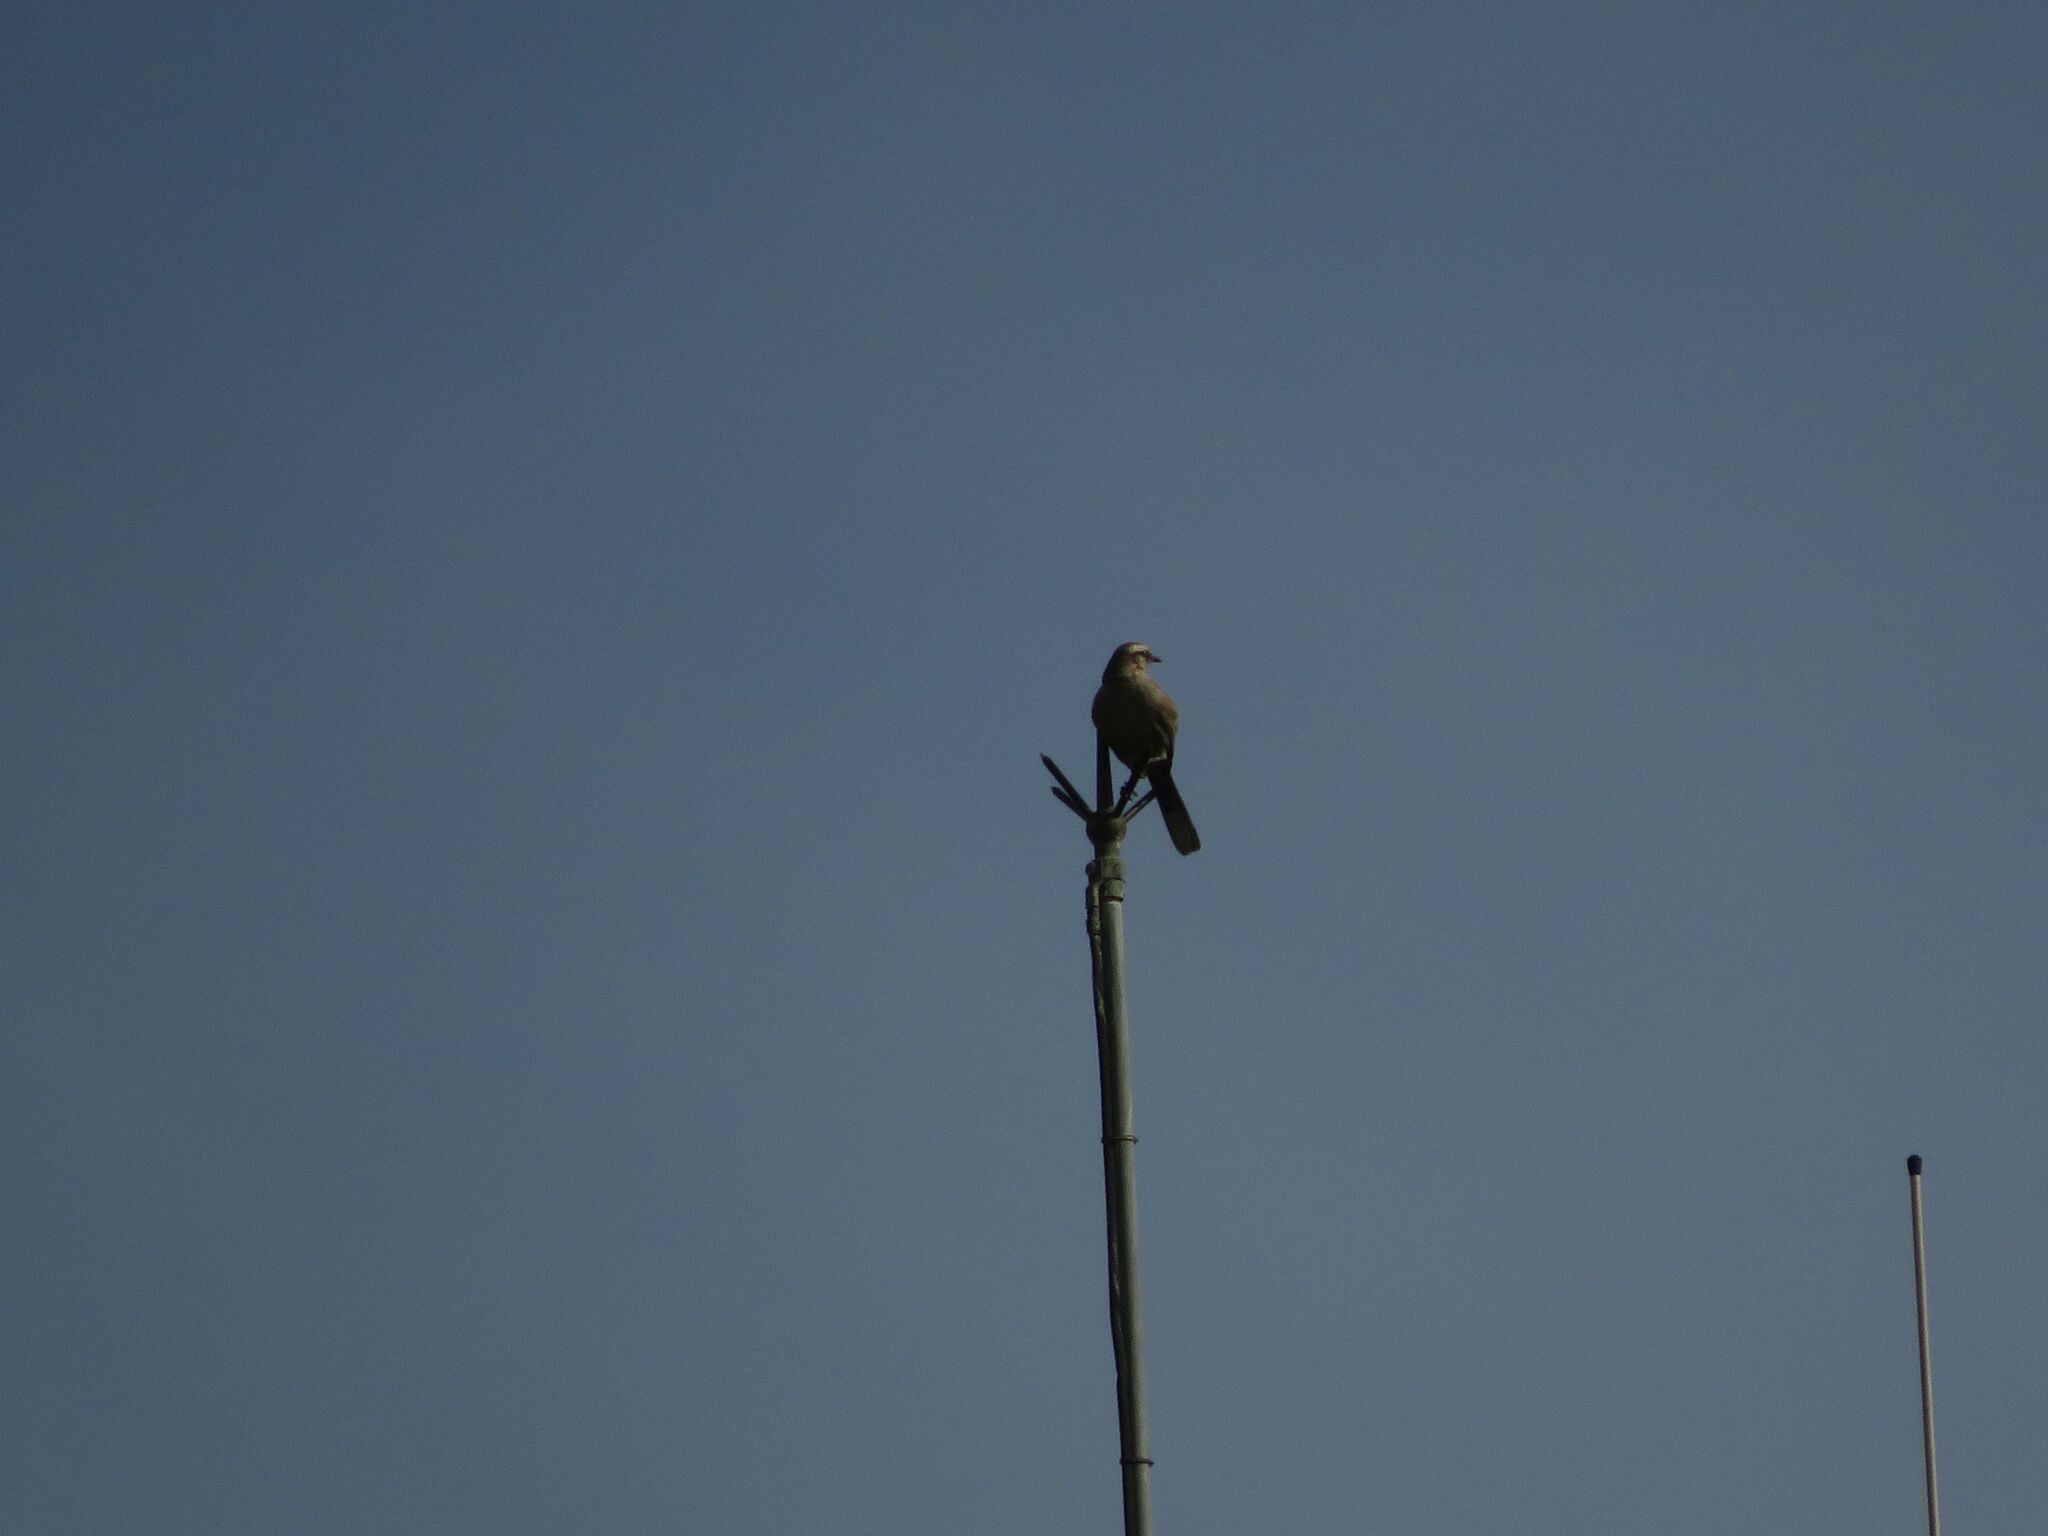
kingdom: Animalia
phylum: Chordata
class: Aves
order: Passeriformes
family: Mimidae
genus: Mimus
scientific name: Mimus saturninus
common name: Chalk-browed mockingbird
